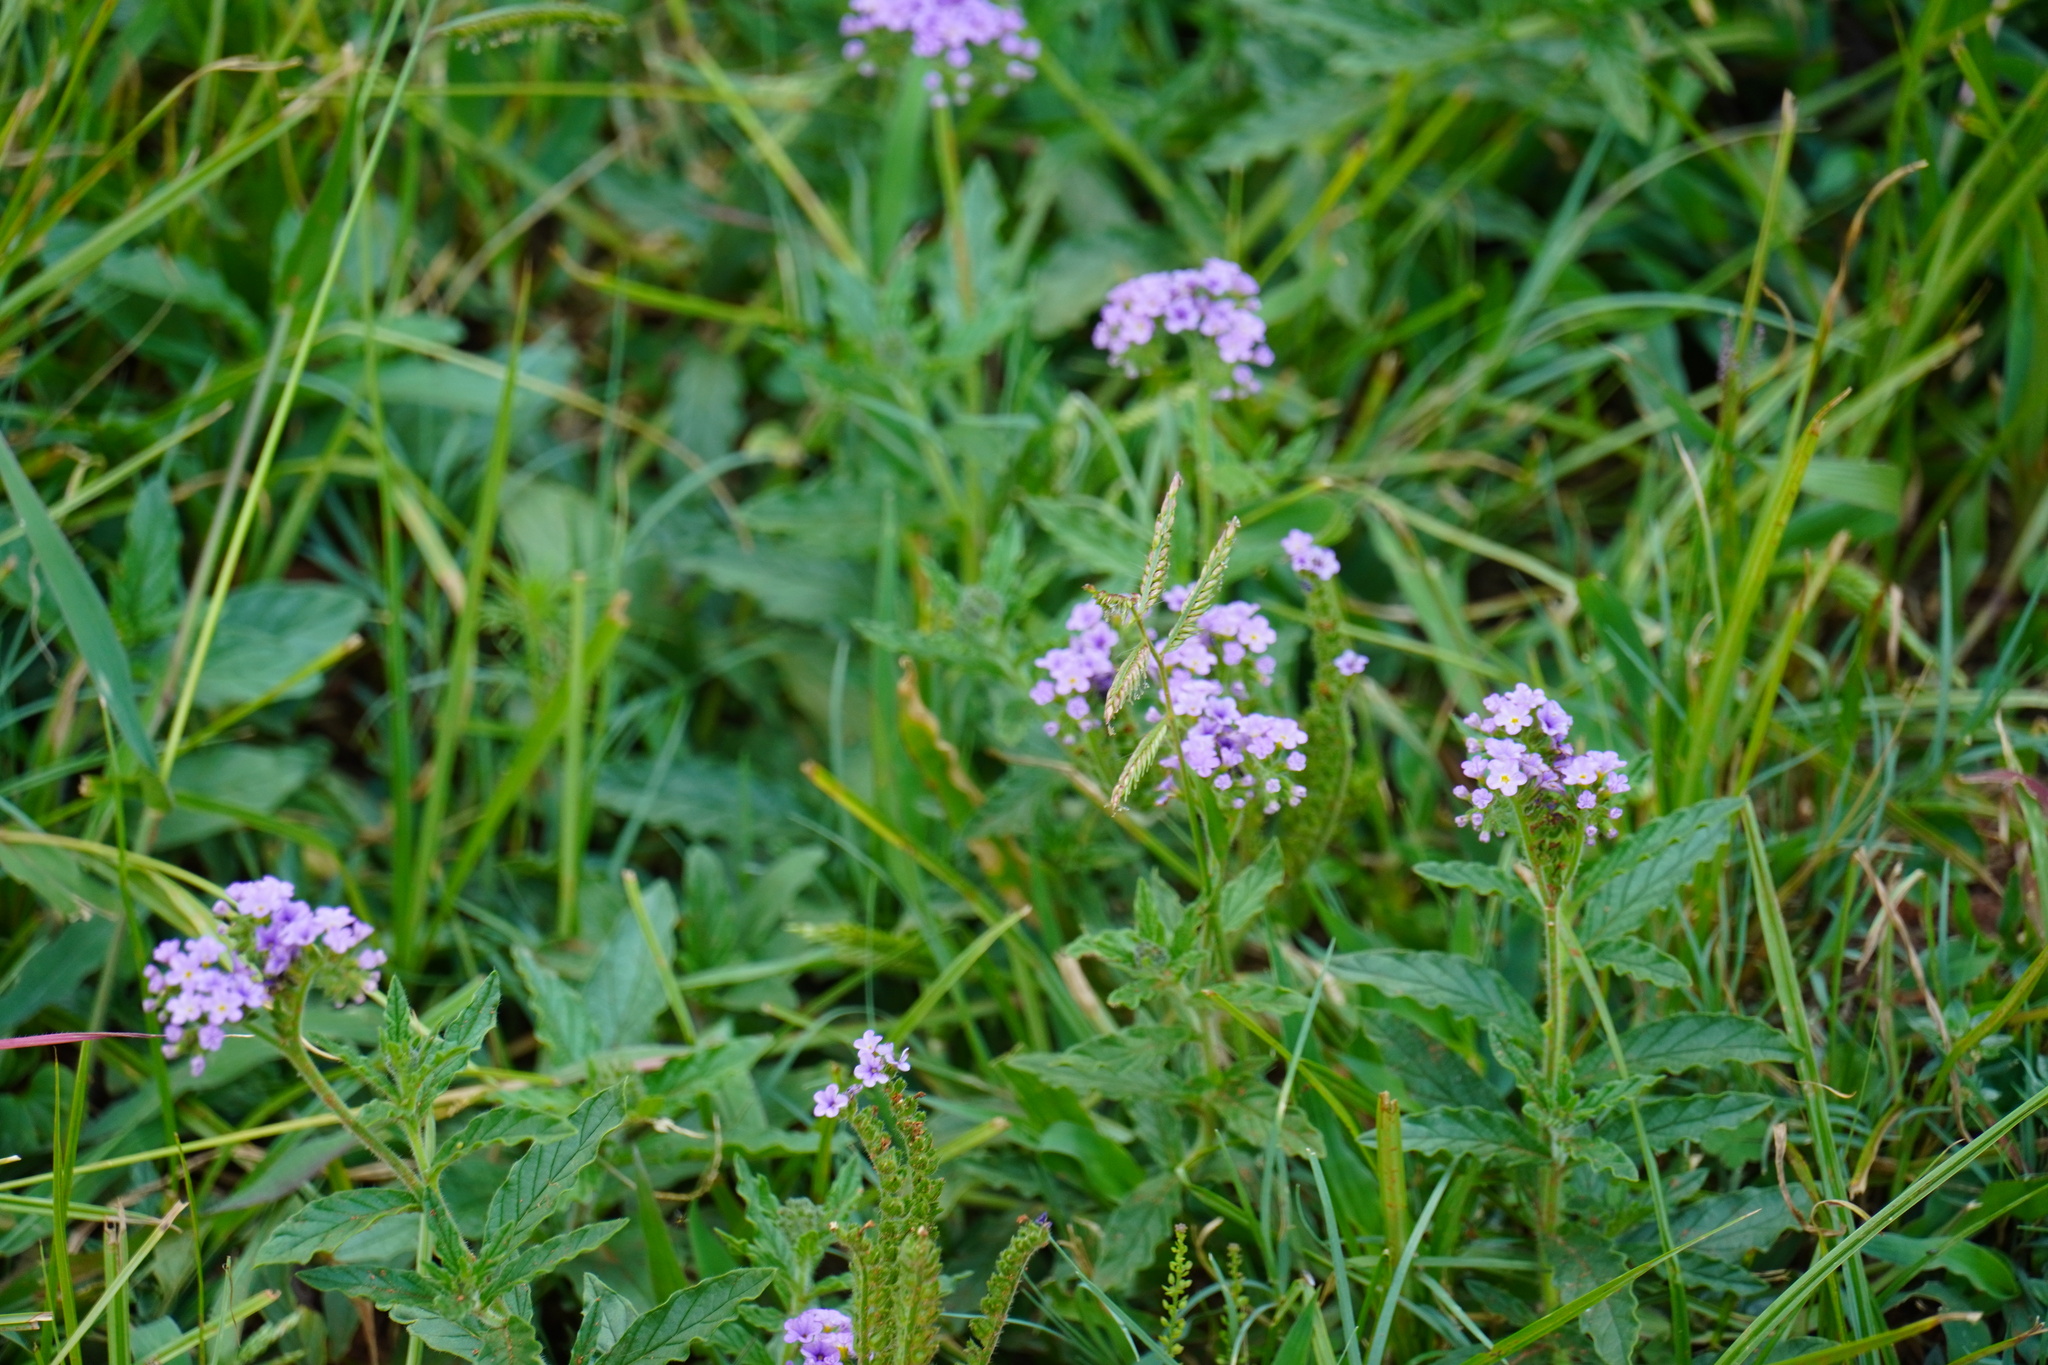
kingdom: Plantae
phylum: Tracheophyta
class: Magnoliopsida
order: Boraginales
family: Heliotropiaceae
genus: Heliotropium
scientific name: Heliotropium amplexicaule
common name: Clasping heliotrope
